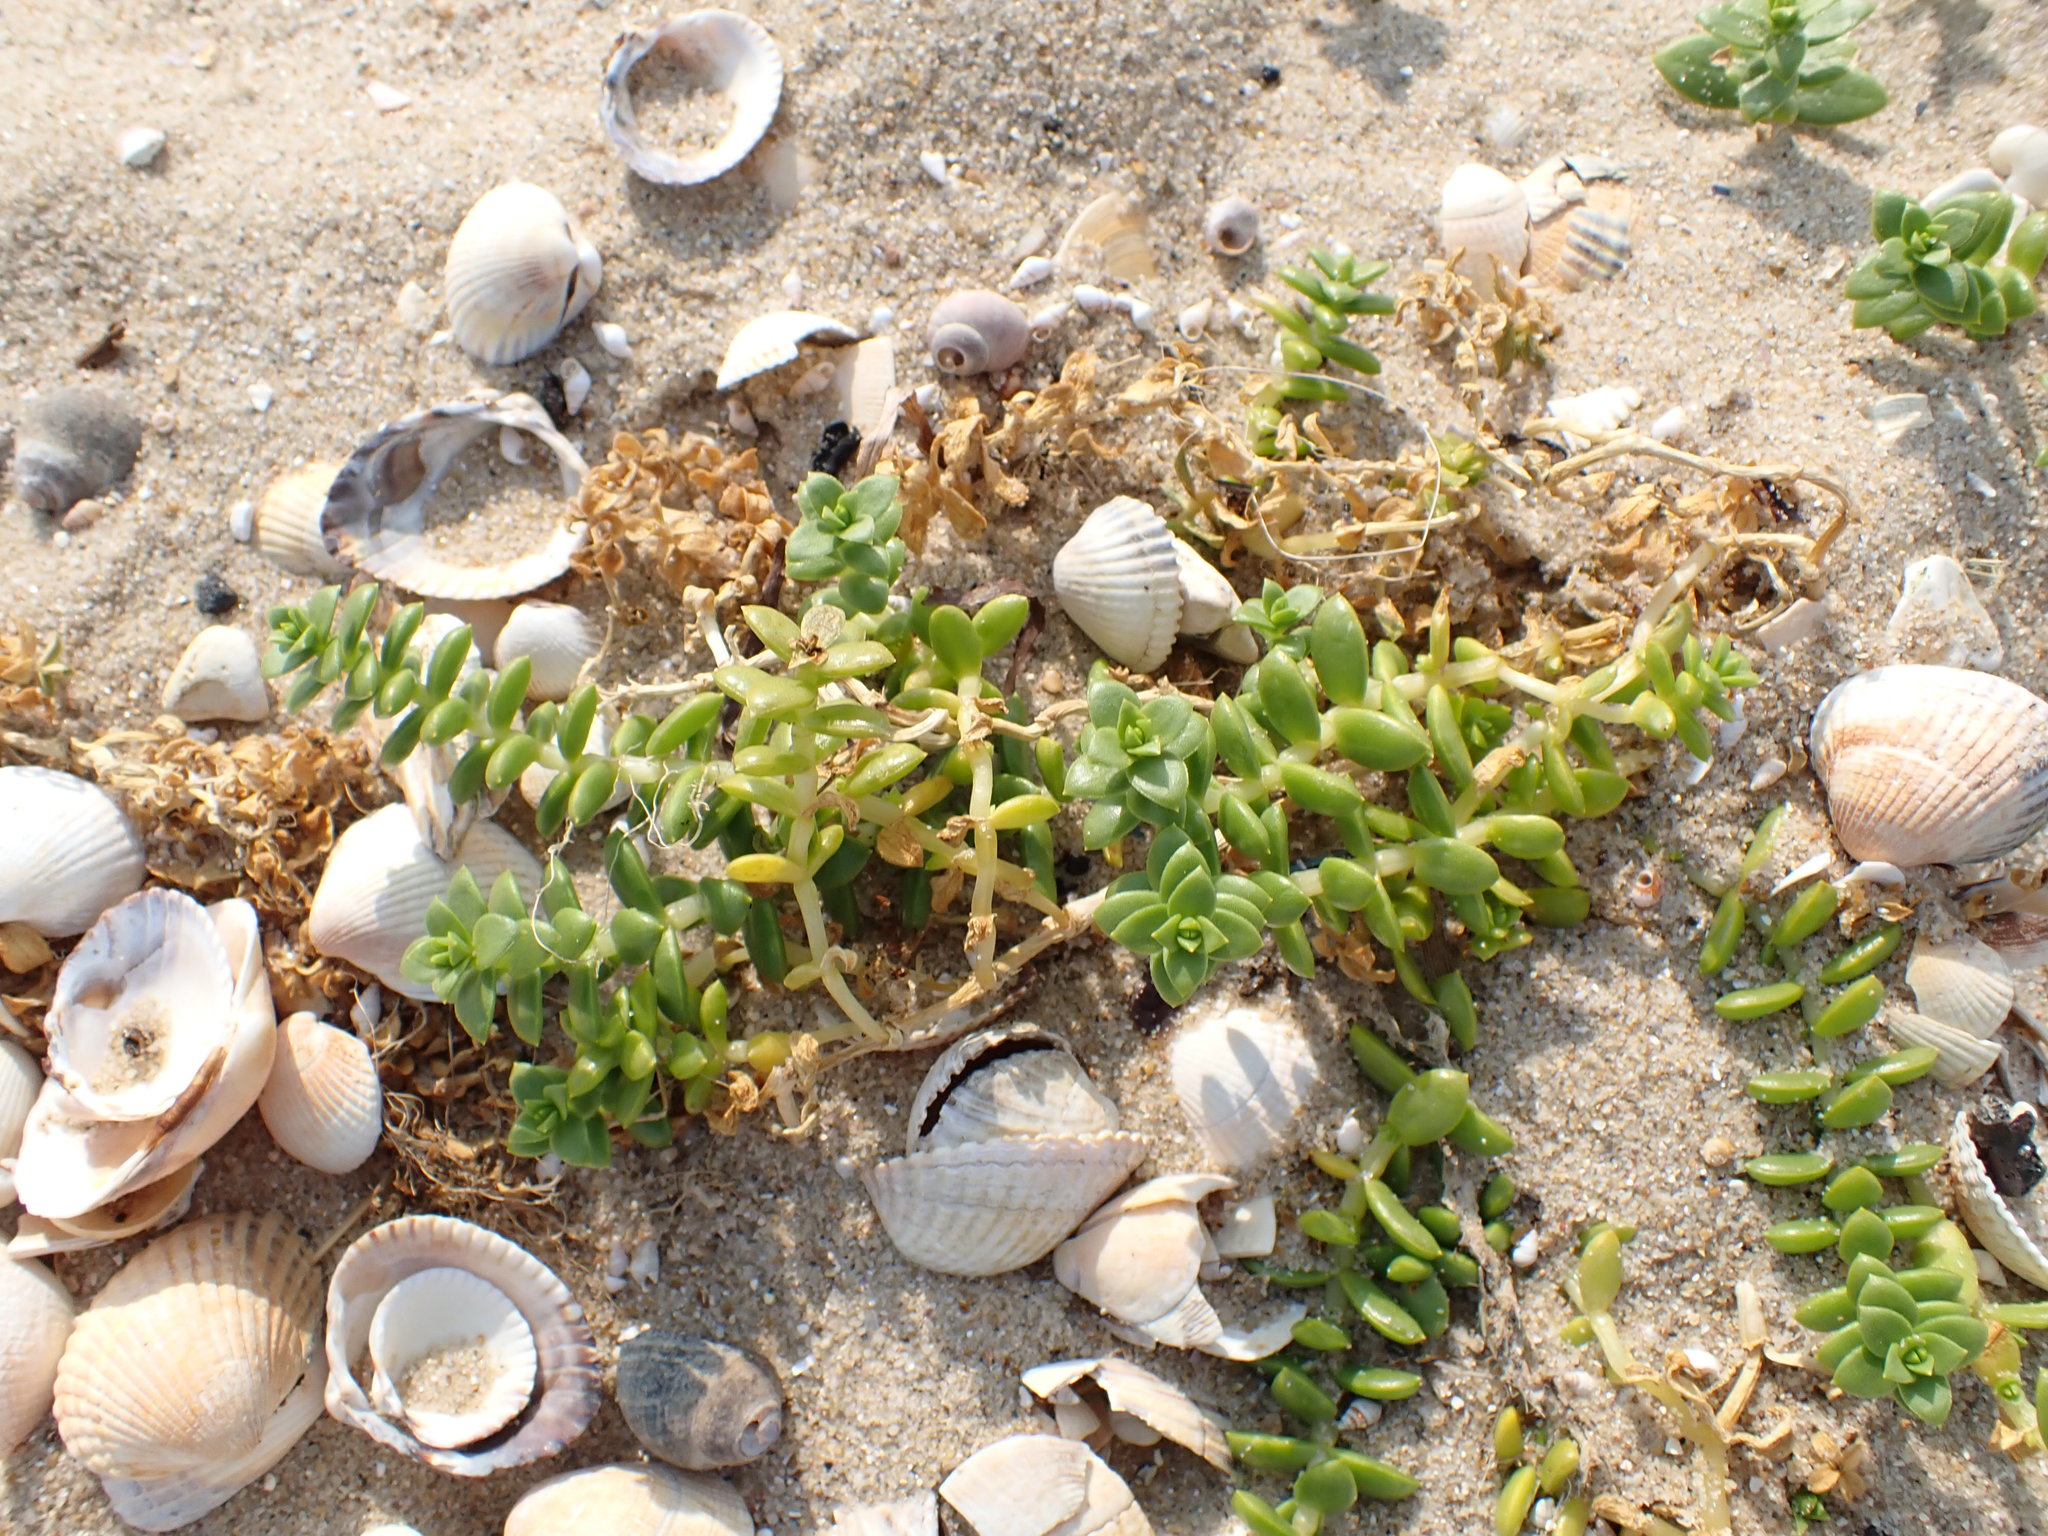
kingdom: Plantae
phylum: Tracheophyta
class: Magnoliopsida
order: Caryophyllales
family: Caryophyllaceae
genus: Honckenya
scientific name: Honckenya peploides
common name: Sea sandwort
